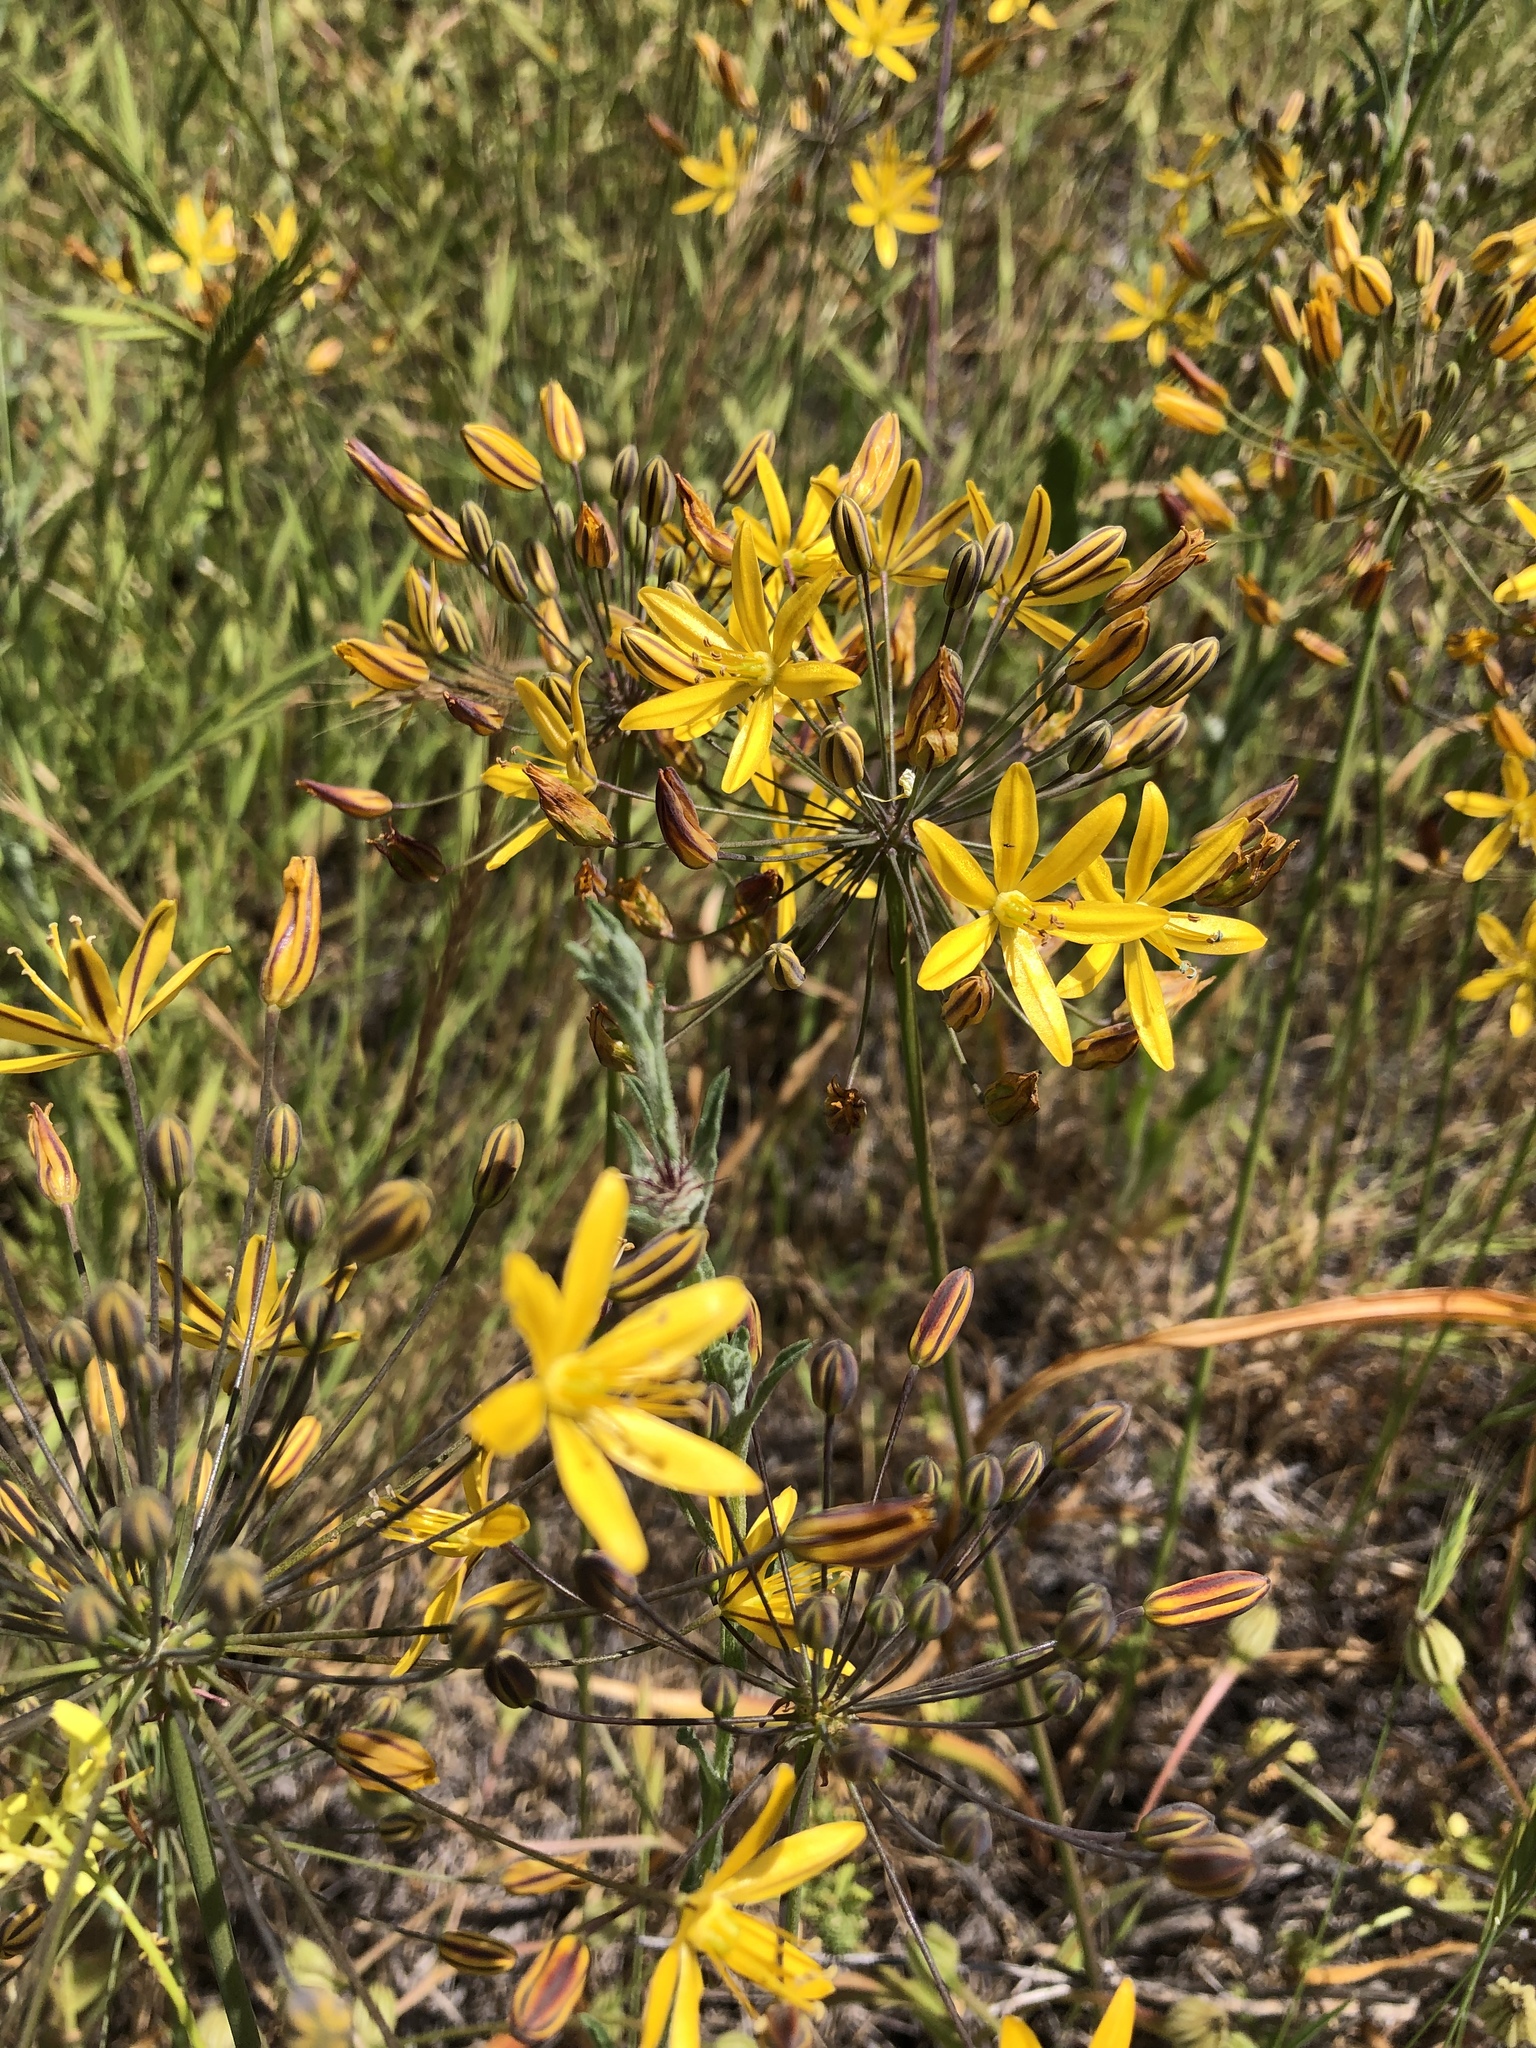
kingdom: Plantae
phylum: Tracheophyta
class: Liliopsida
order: Asparagales
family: Asparagaceae
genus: Bloomeria
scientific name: Bloomeria crocea
